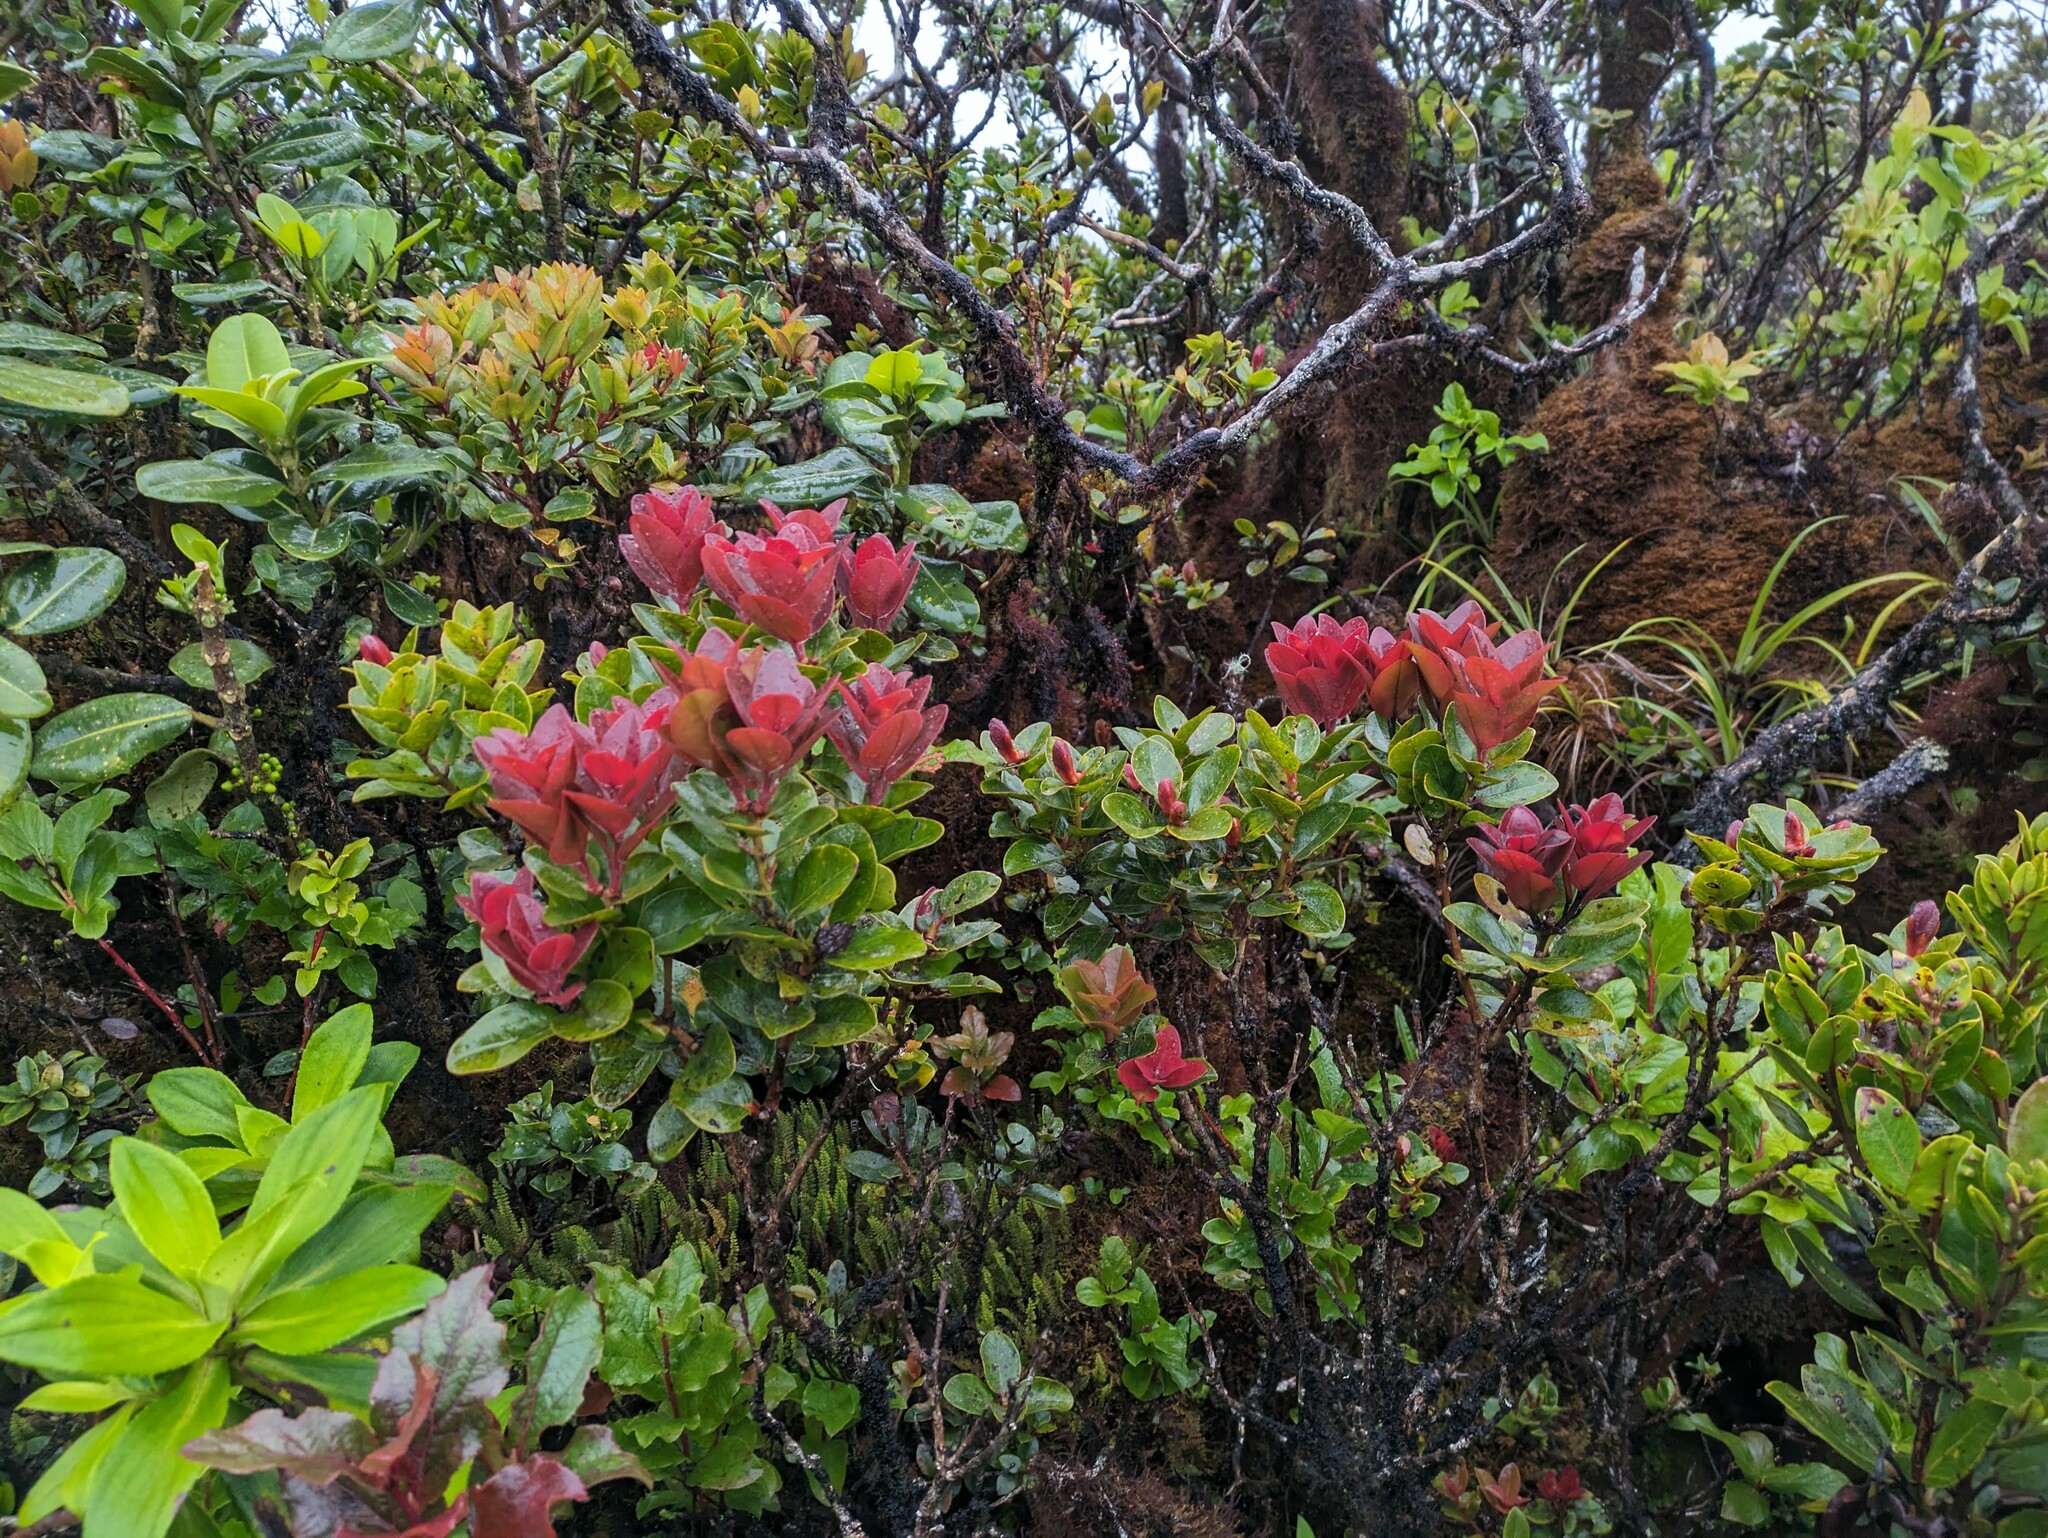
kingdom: Plantae
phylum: Tracheophyta
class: Magnoliopsida
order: Myrtales
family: Myrtaceae
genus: Metrosideros
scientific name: Metrosideros polymorpha
